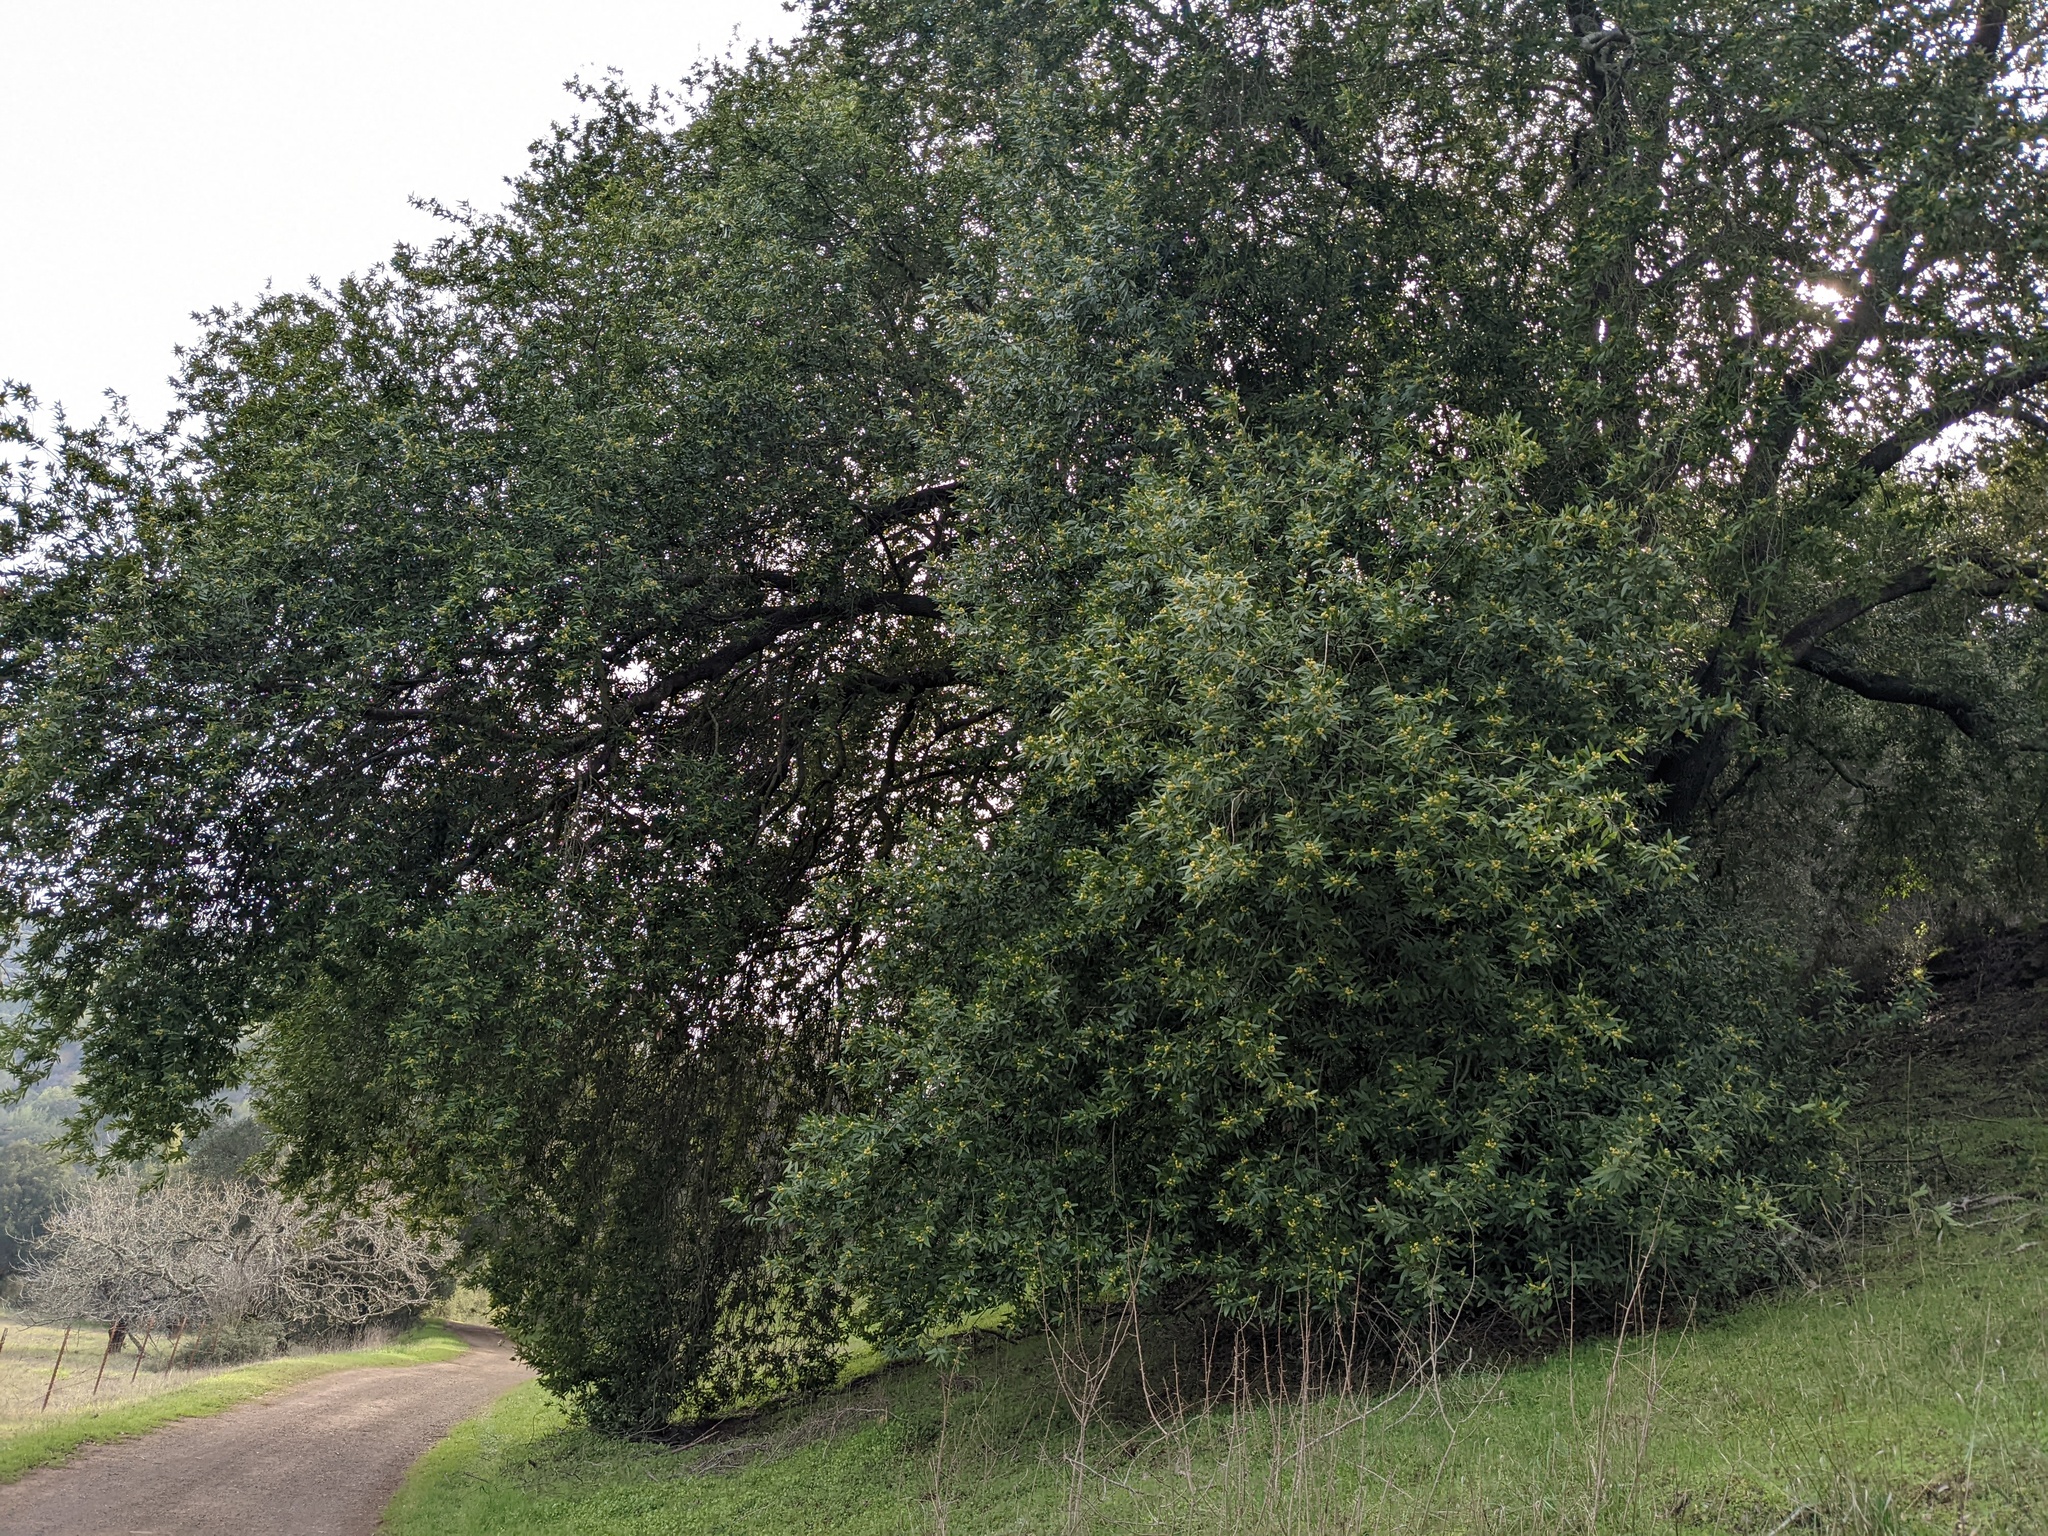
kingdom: Plantae
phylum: Tracheophyta
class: Magnoliopsida
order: Laurales
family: Lauraceae
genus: Umbellularia
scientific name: Umbellularia californica
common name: California bay
